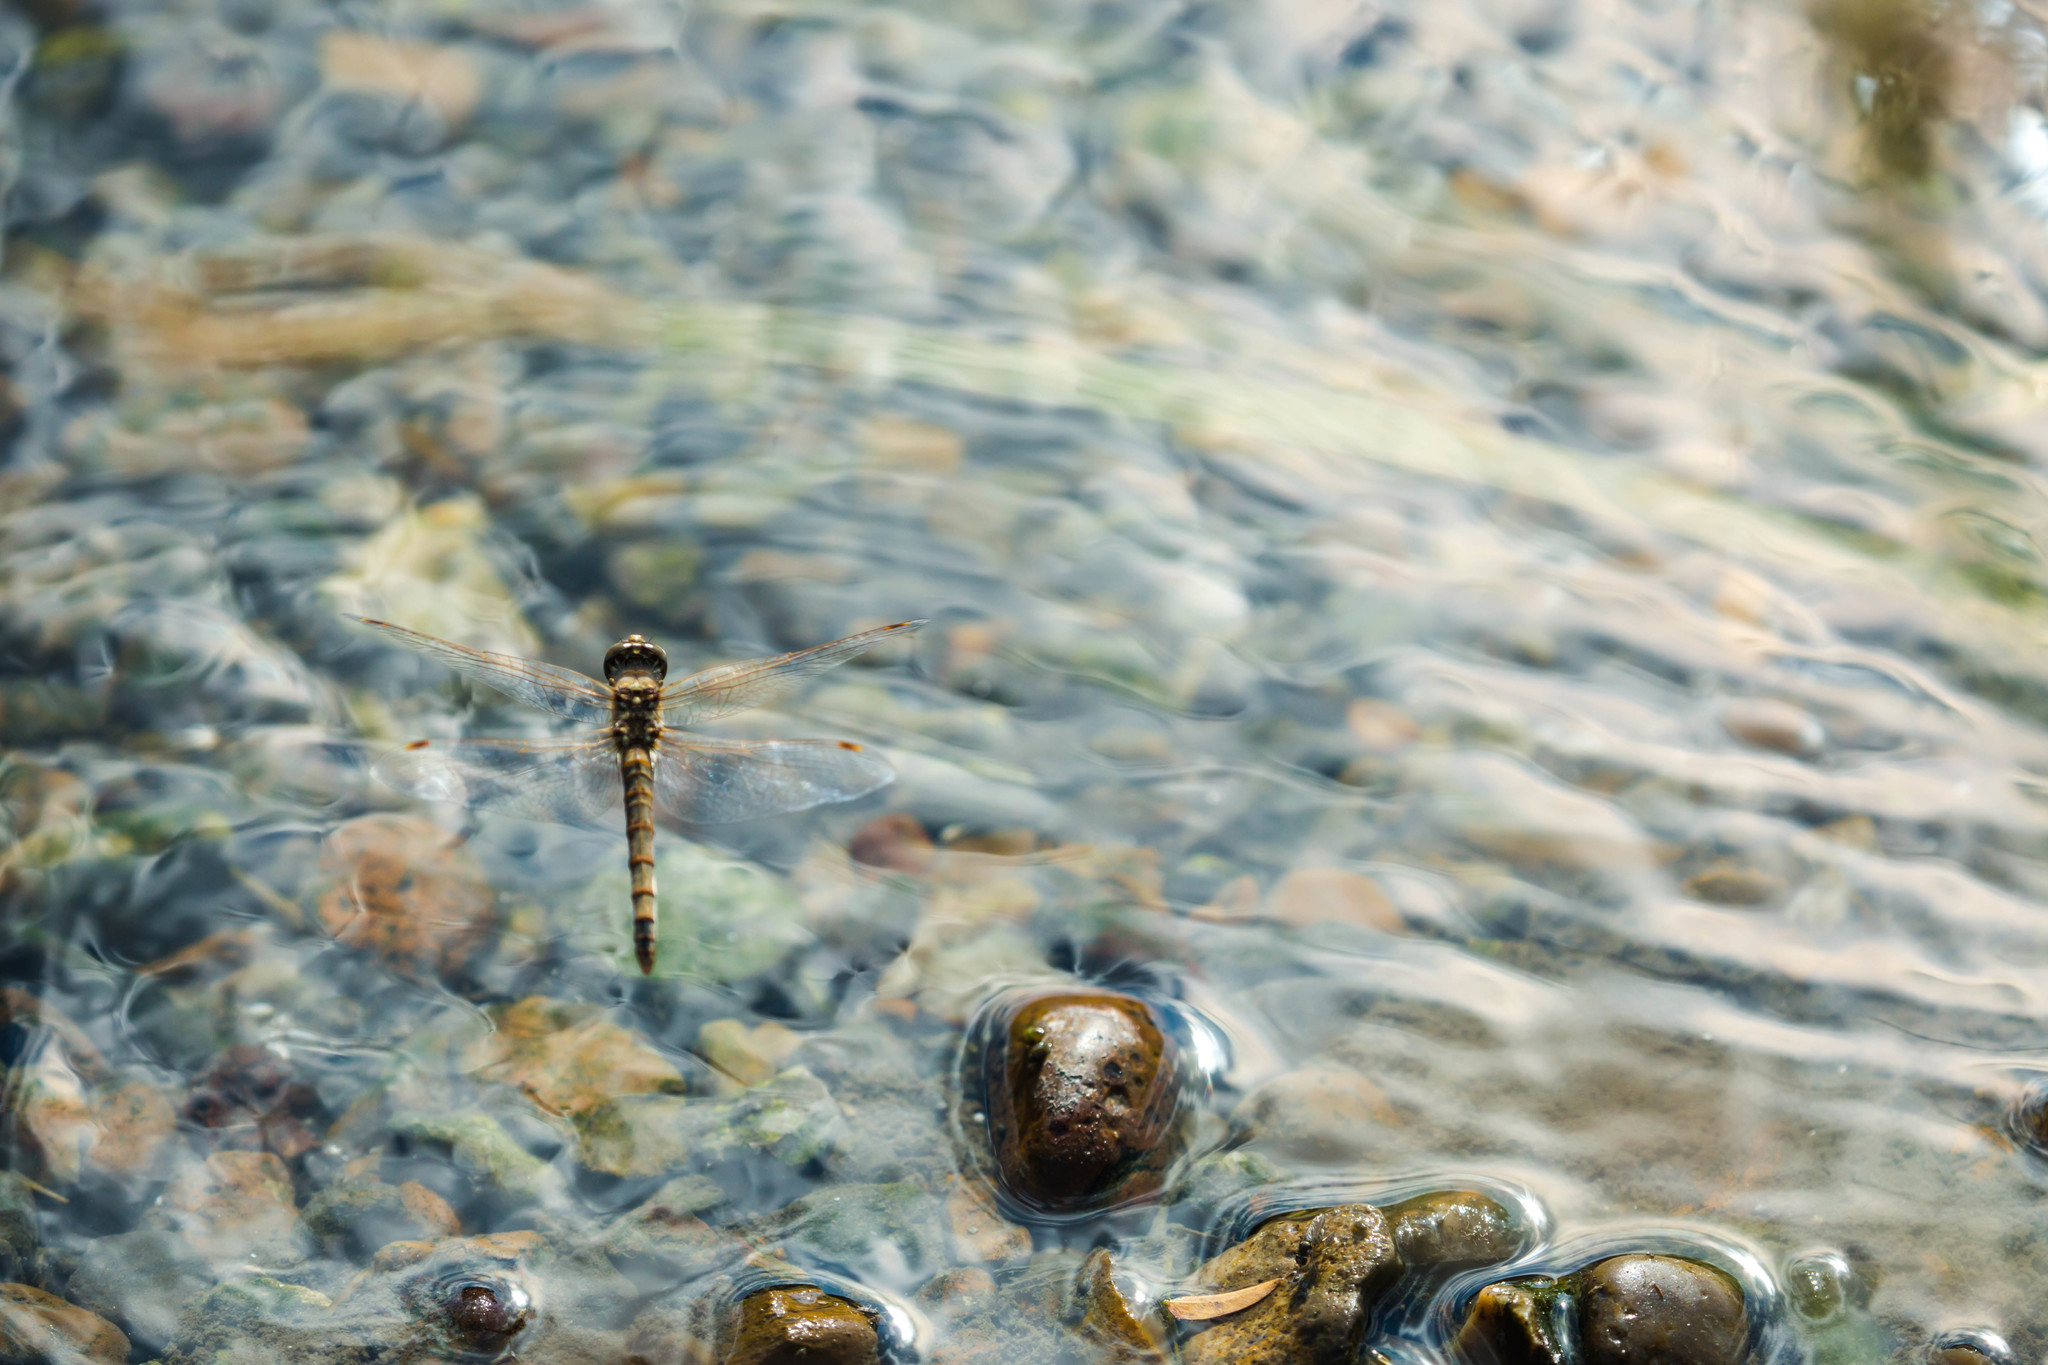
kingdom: Animalia
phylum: Arthropoda
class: Insecta
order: Odonata
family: Libellulidae
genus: Sympetrum
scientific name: Sympetrum corruptum
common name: Variegated meadowhawk
